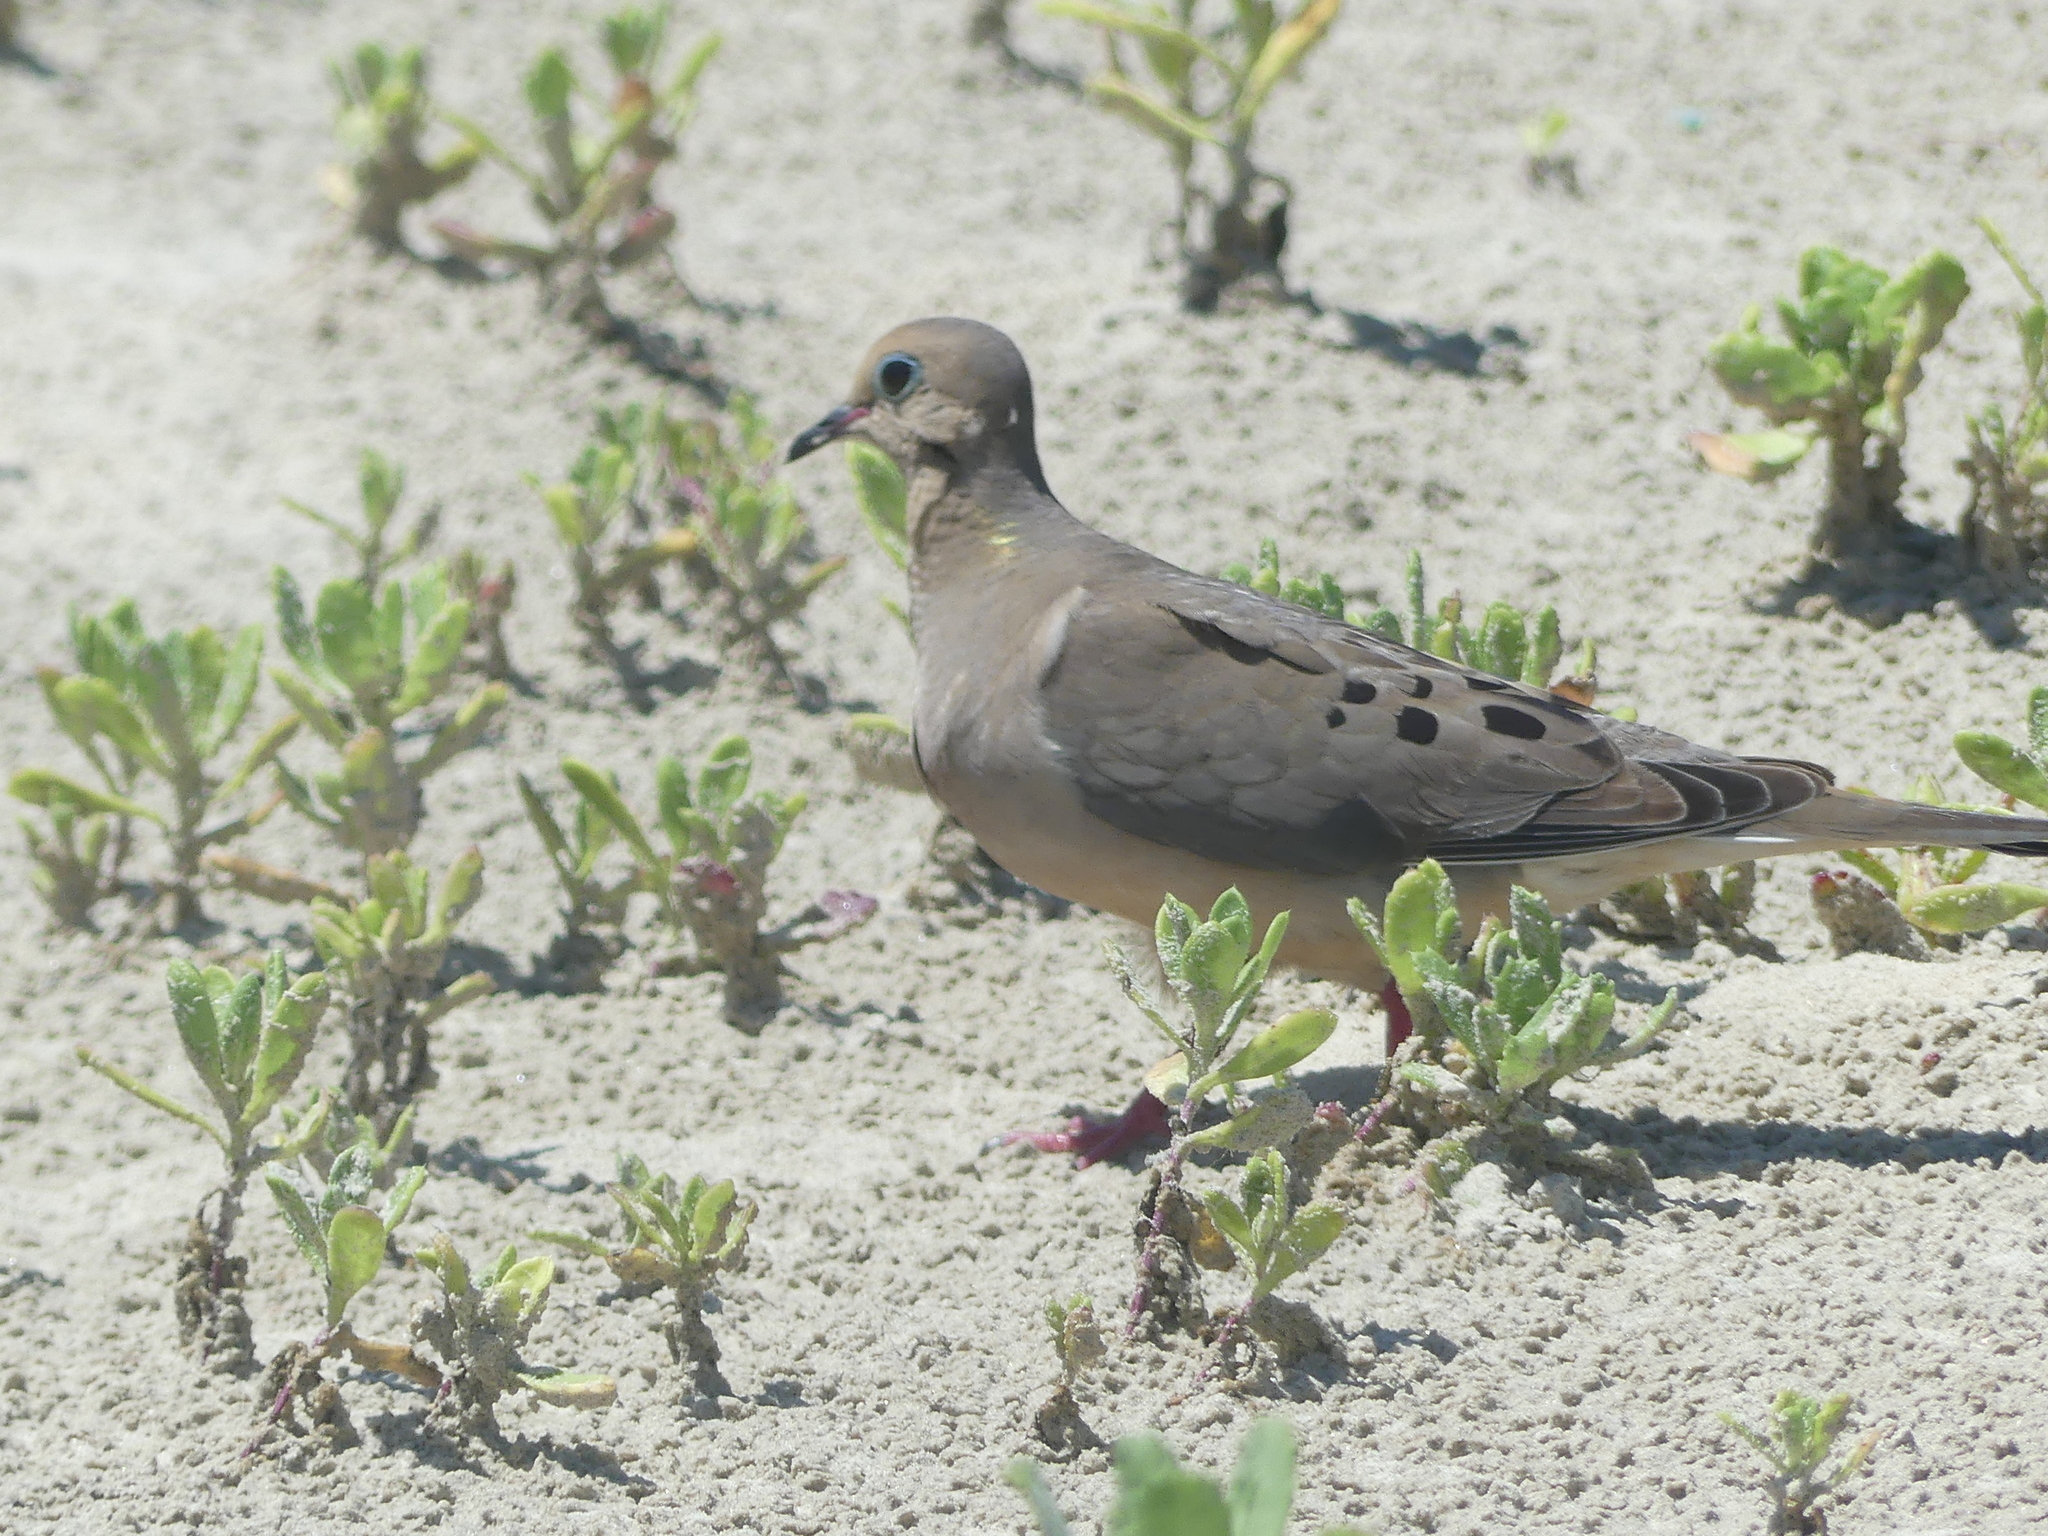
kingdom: Animalia
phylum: Chordata
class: Aves
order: Columbiformes
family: Columbidae
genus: Zenaida
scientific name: Zenaida macroura
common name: Mourning dove
